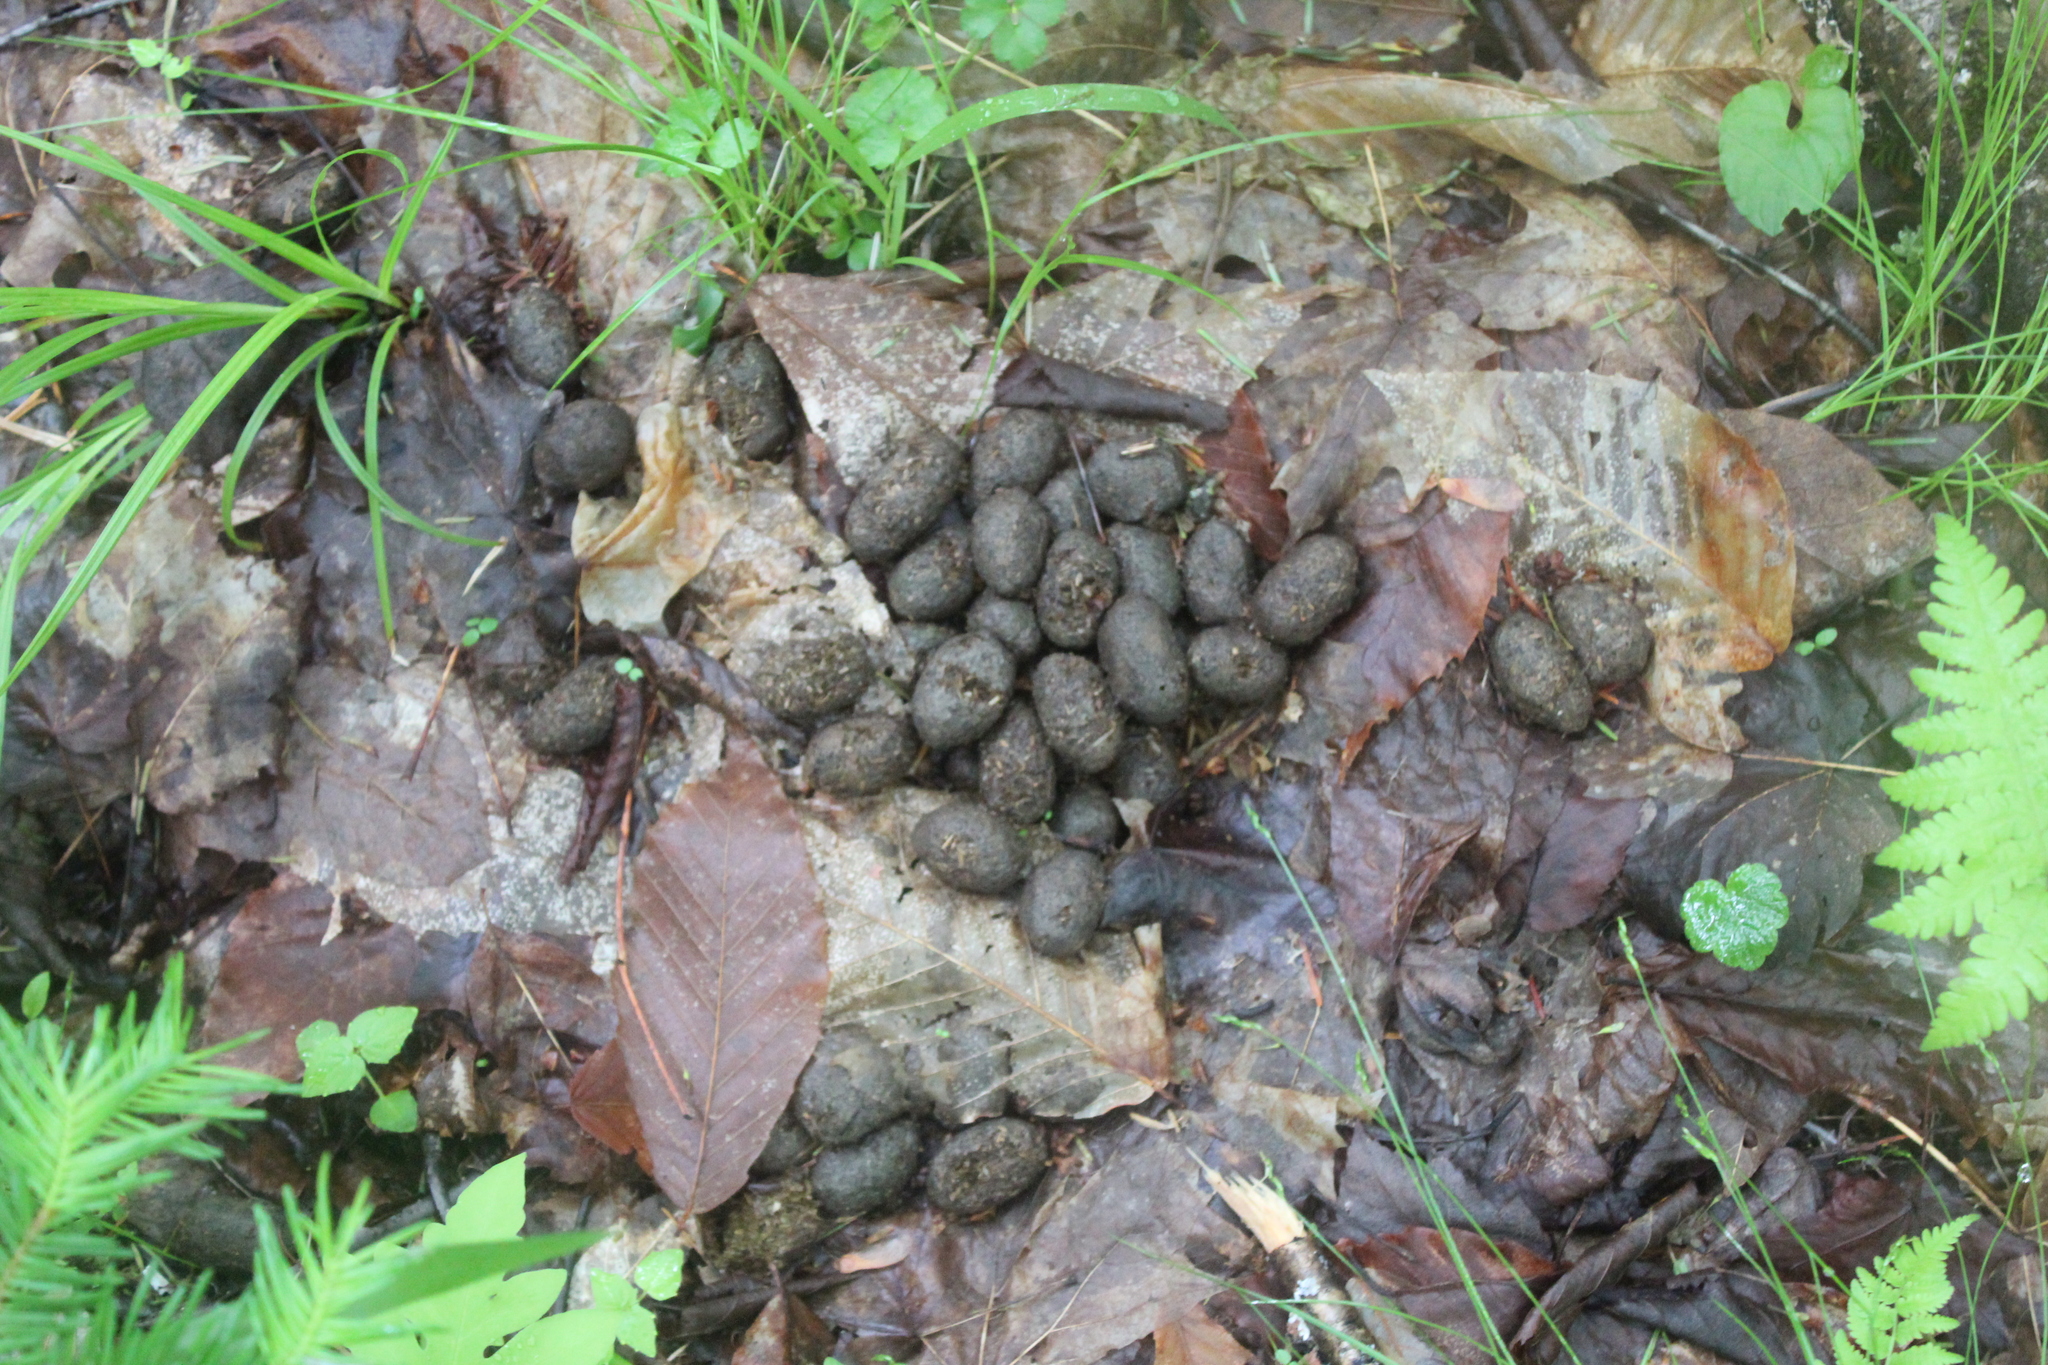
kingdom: Animalia
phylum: Chordata
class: Mammalia
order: Artiodactyla
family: Cervidae
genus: Alces
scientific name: Alces alces
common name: Moose
